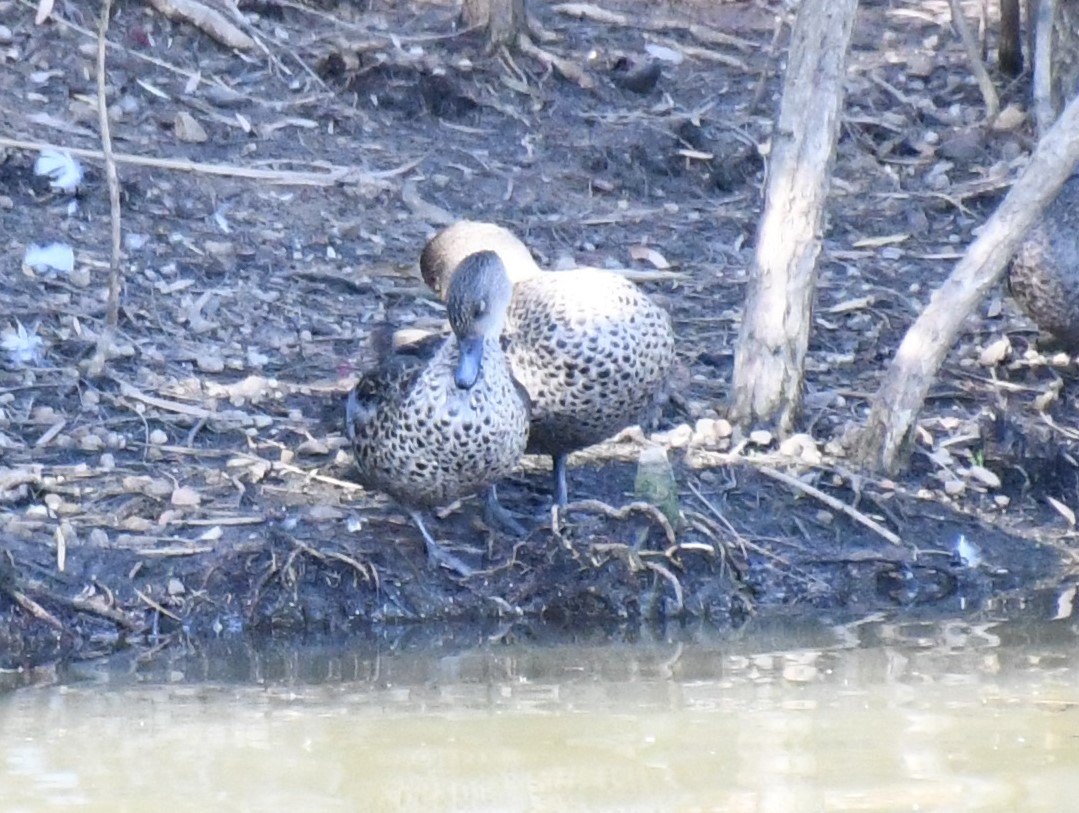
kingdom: Animalia
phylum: Chordata
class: Aves
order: Anseriformes
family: Anatidae
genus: Anas
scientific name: Anas gracilis
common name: Grey teal
